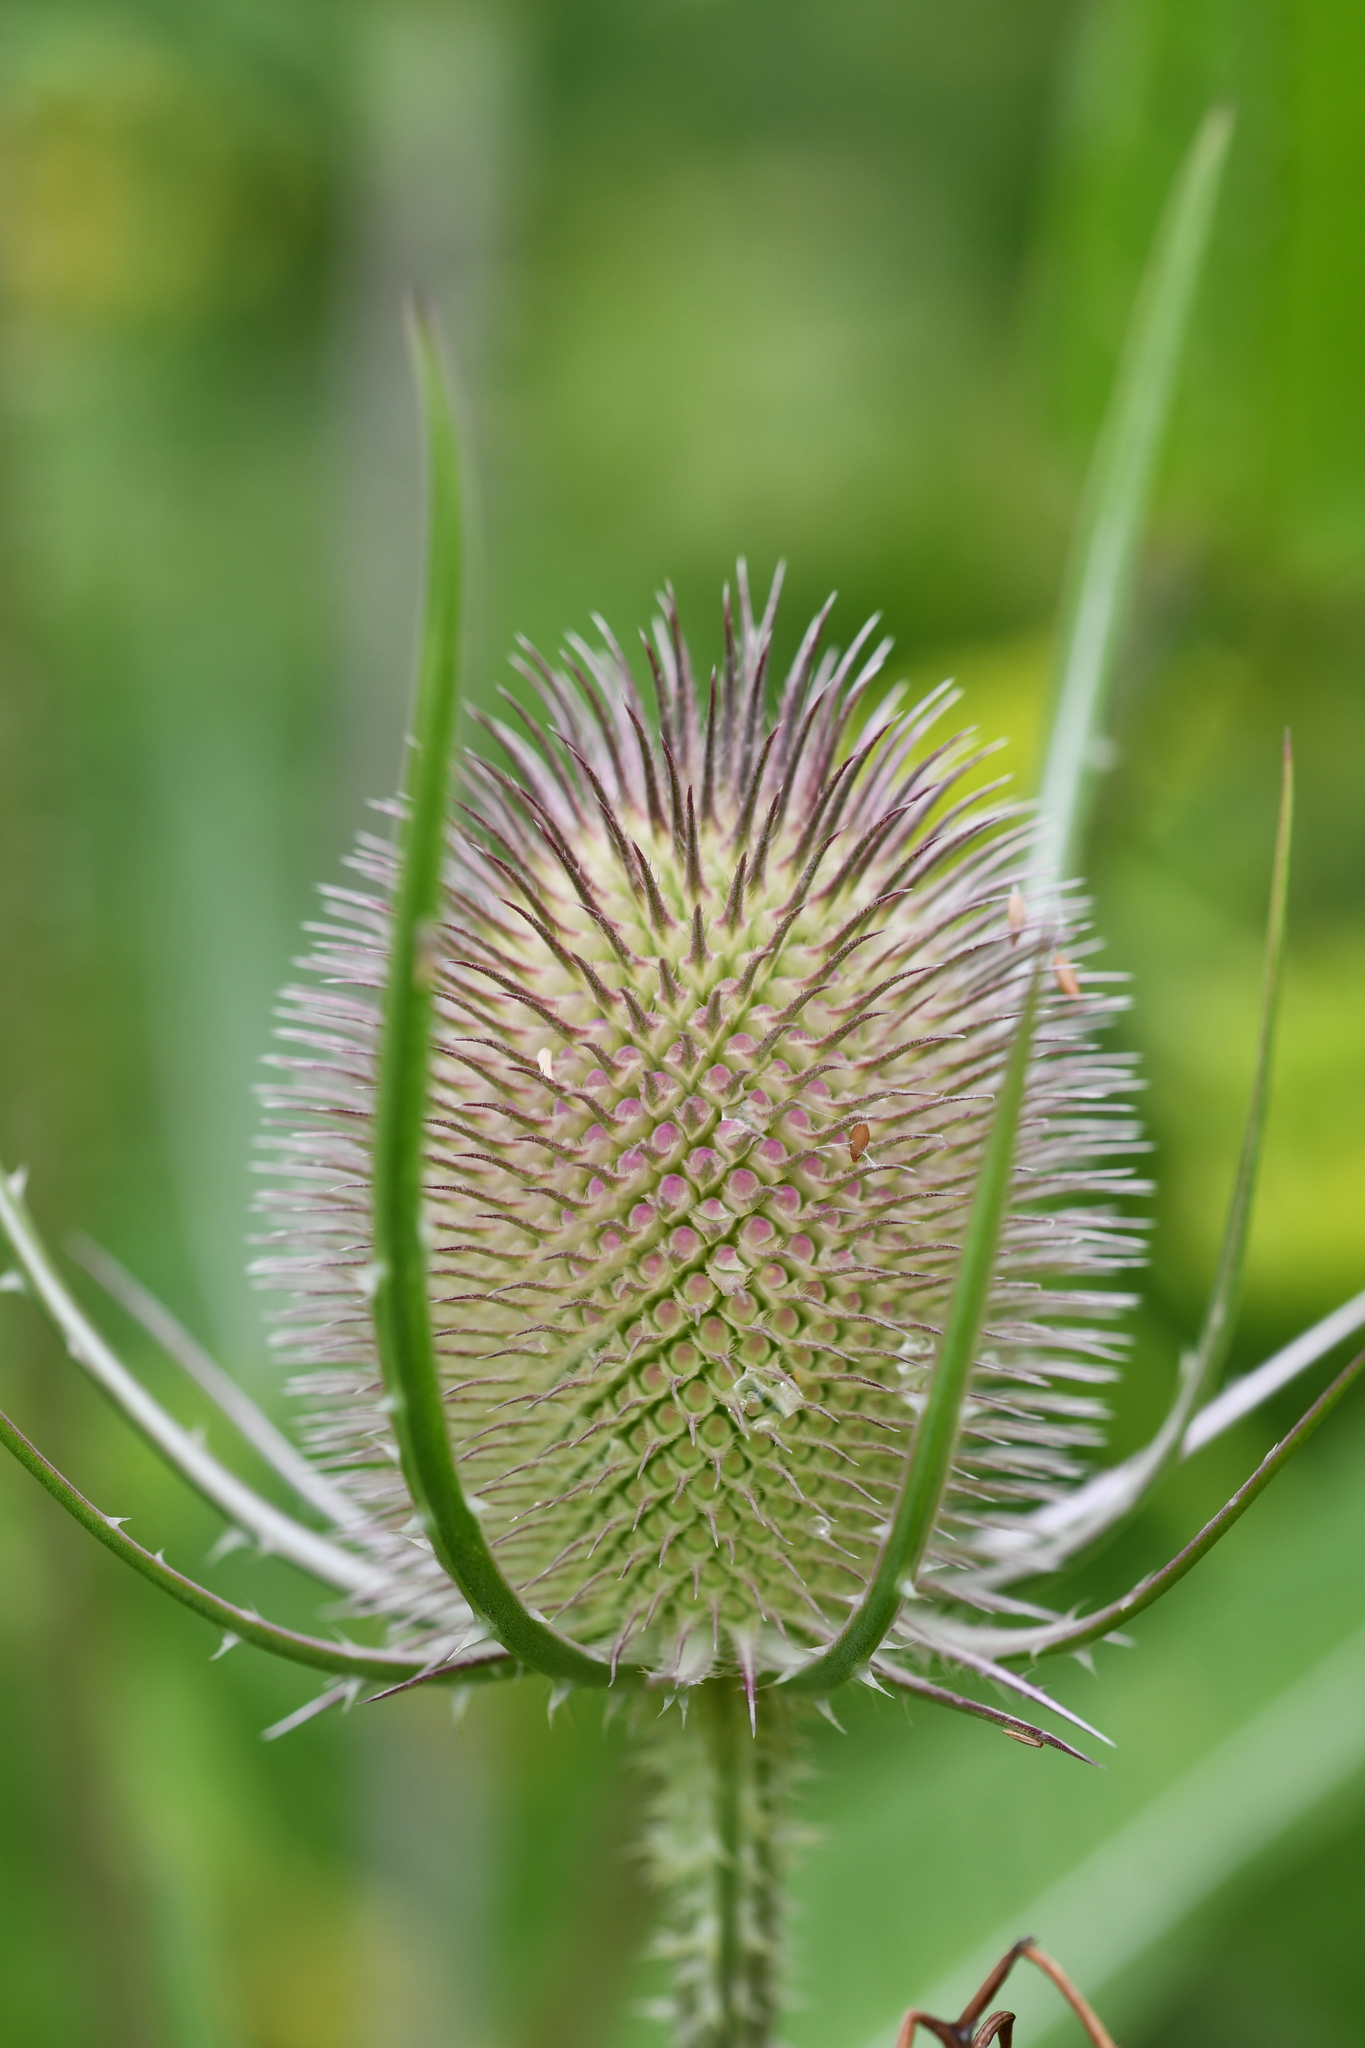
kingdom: Plantae
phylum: Tracheophyta
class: Magnoliopsida
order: Dipsacales
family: Caprifoliaceae
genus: Dipsacus
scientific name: Dipsacus fullonum
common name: Teasel
